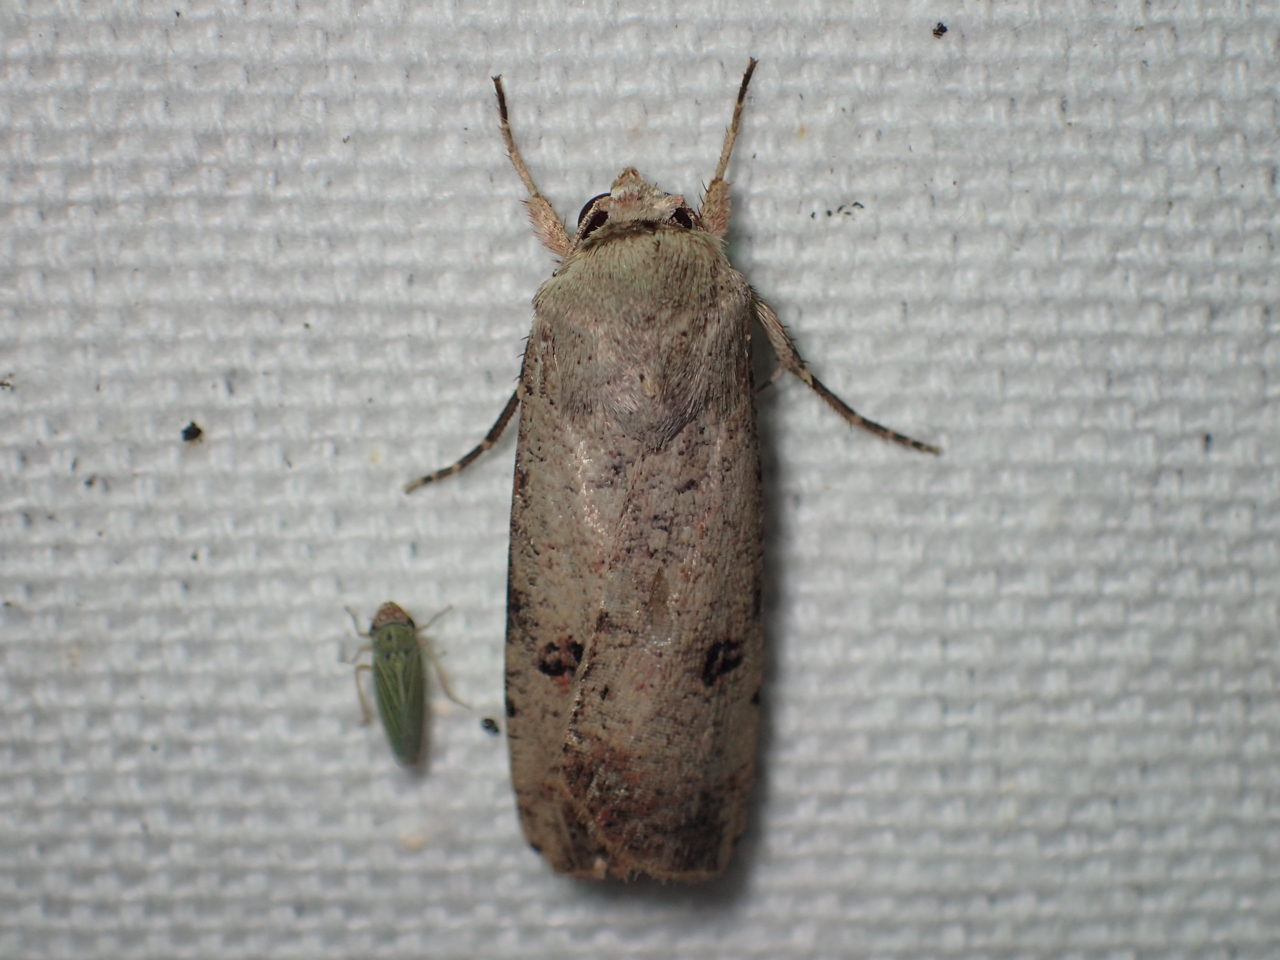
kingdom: Animalia
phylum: Arthropoda
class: Insecta
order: Lepidoptera
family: Noctuidae
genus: Anicla
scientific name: Anicla infecta
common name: Green cutworm
